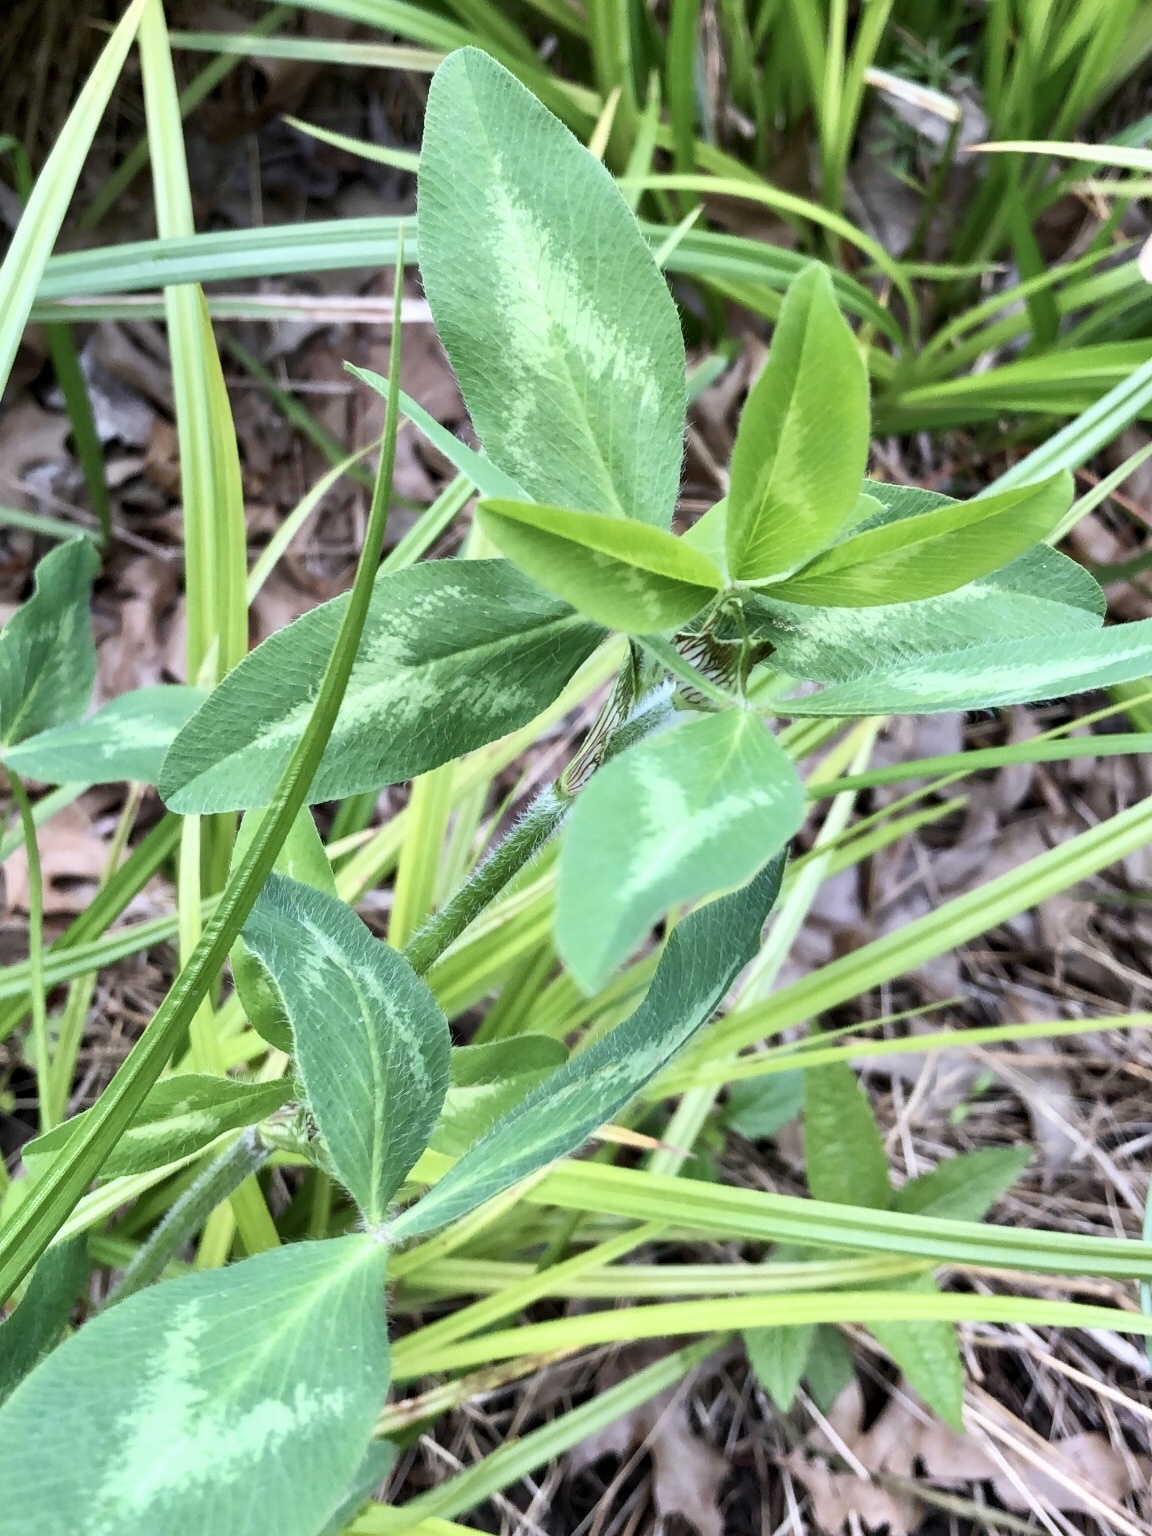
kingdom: Plantae
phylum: Tracheophyta
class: Magnoliopsida
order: Fabales
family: Fabaceae
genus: Trifolium
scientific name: Trifolium pratense
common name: Red clover
